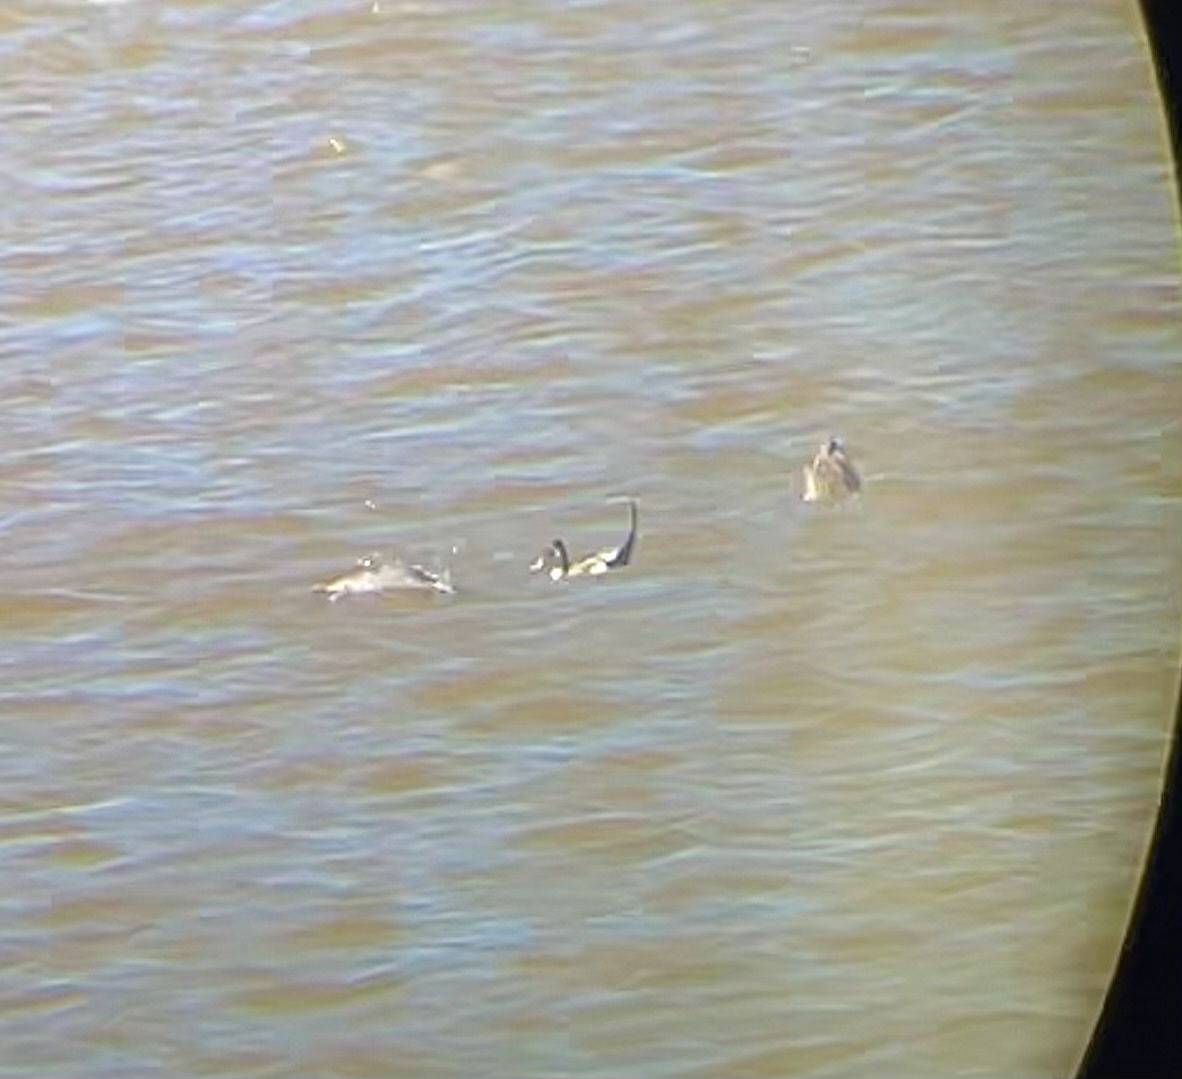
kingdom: Animalia
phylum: Chordata
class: Aves
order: Anseriformes
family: Anatidae
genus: Anas
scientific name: Anas acuta
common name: Northern pintail
